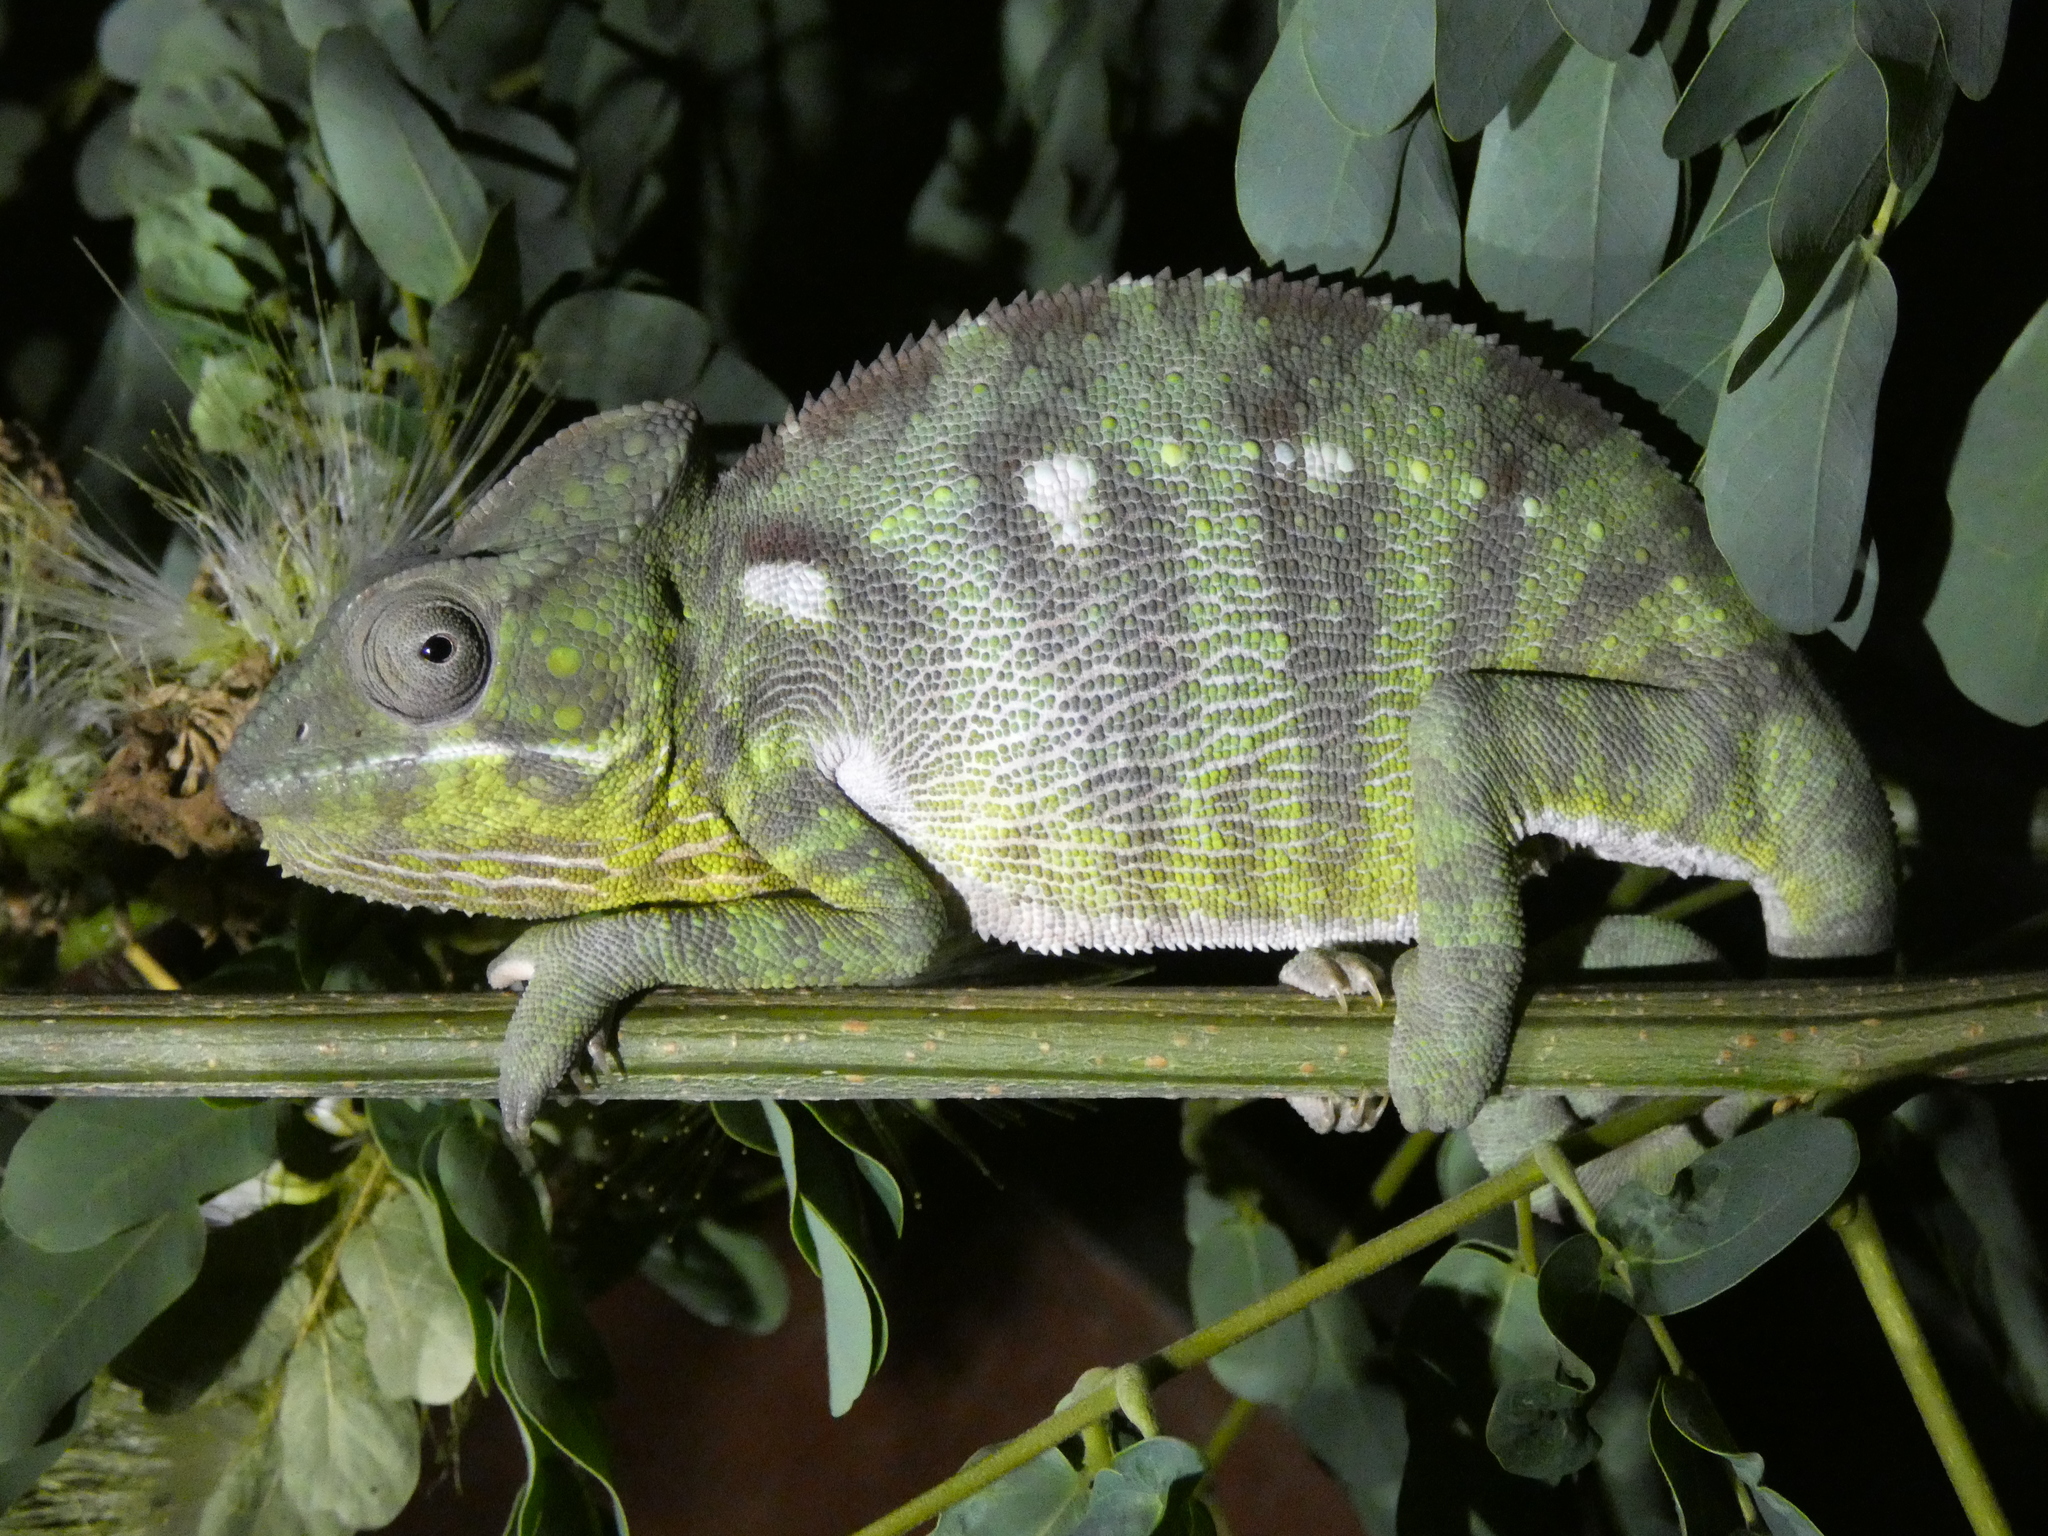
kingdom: Animalia
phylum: Chordata
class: Squamata
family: Chamaeleonidae
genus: Furcifer
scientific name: Furcifer oustaleti
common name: Oustalet's chameleon
